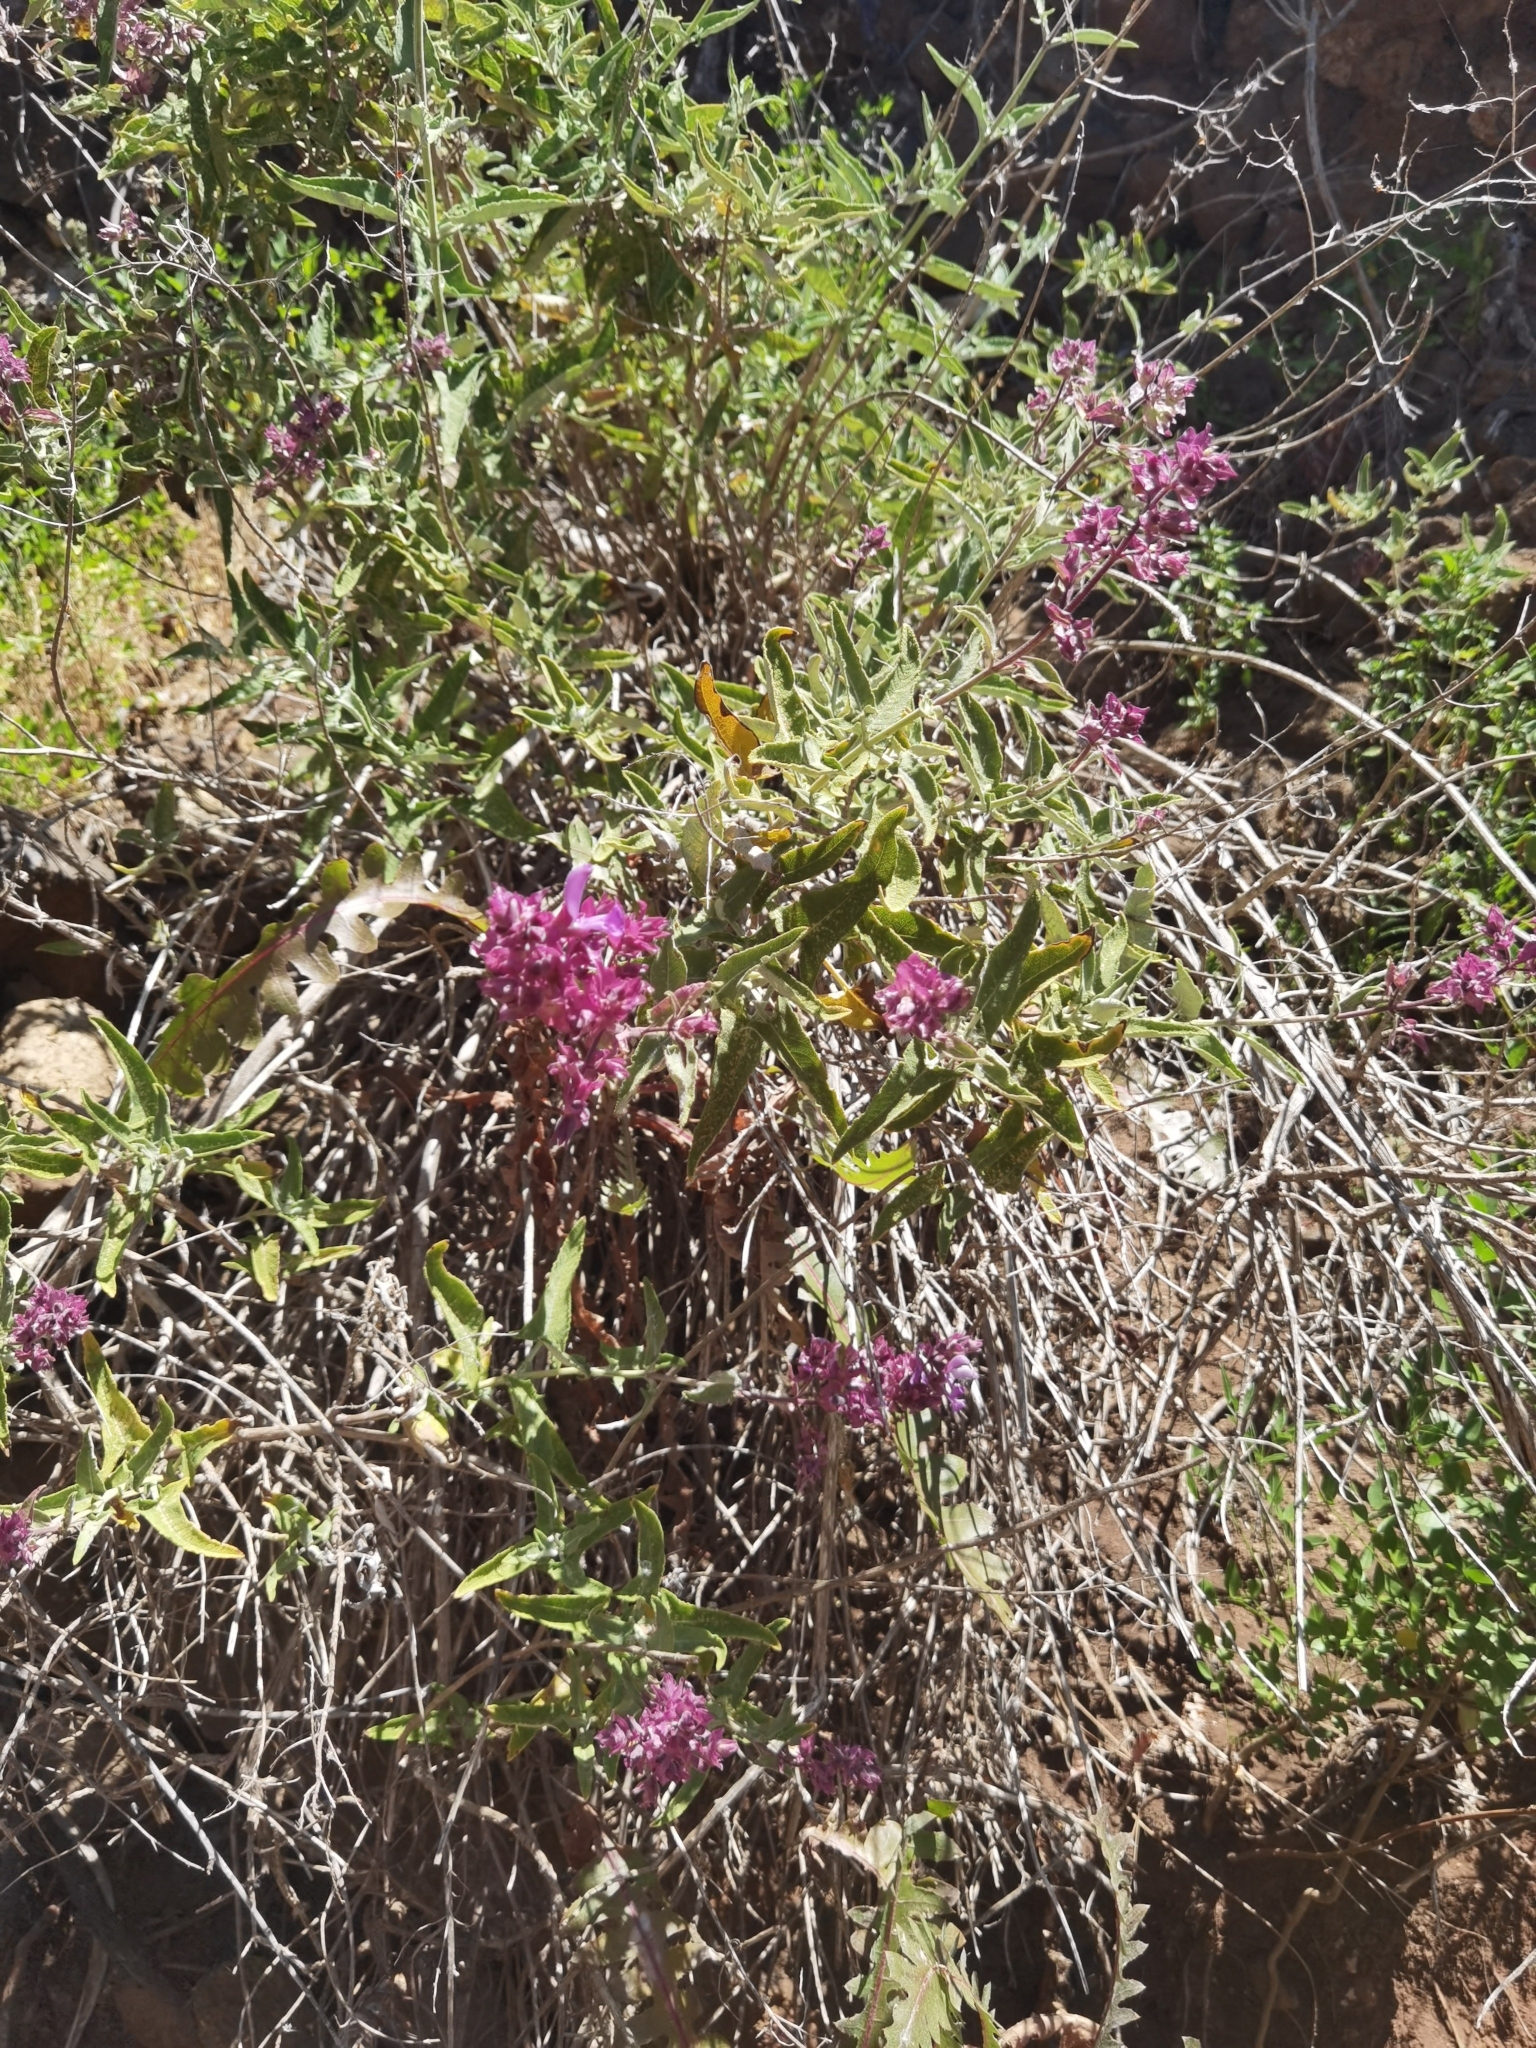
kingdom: Plantae
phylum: Tracheophyta
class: Magnoliopsida
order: Lamiales
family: Lamiaceae
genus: Salvia
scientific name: Salvia canariensis
